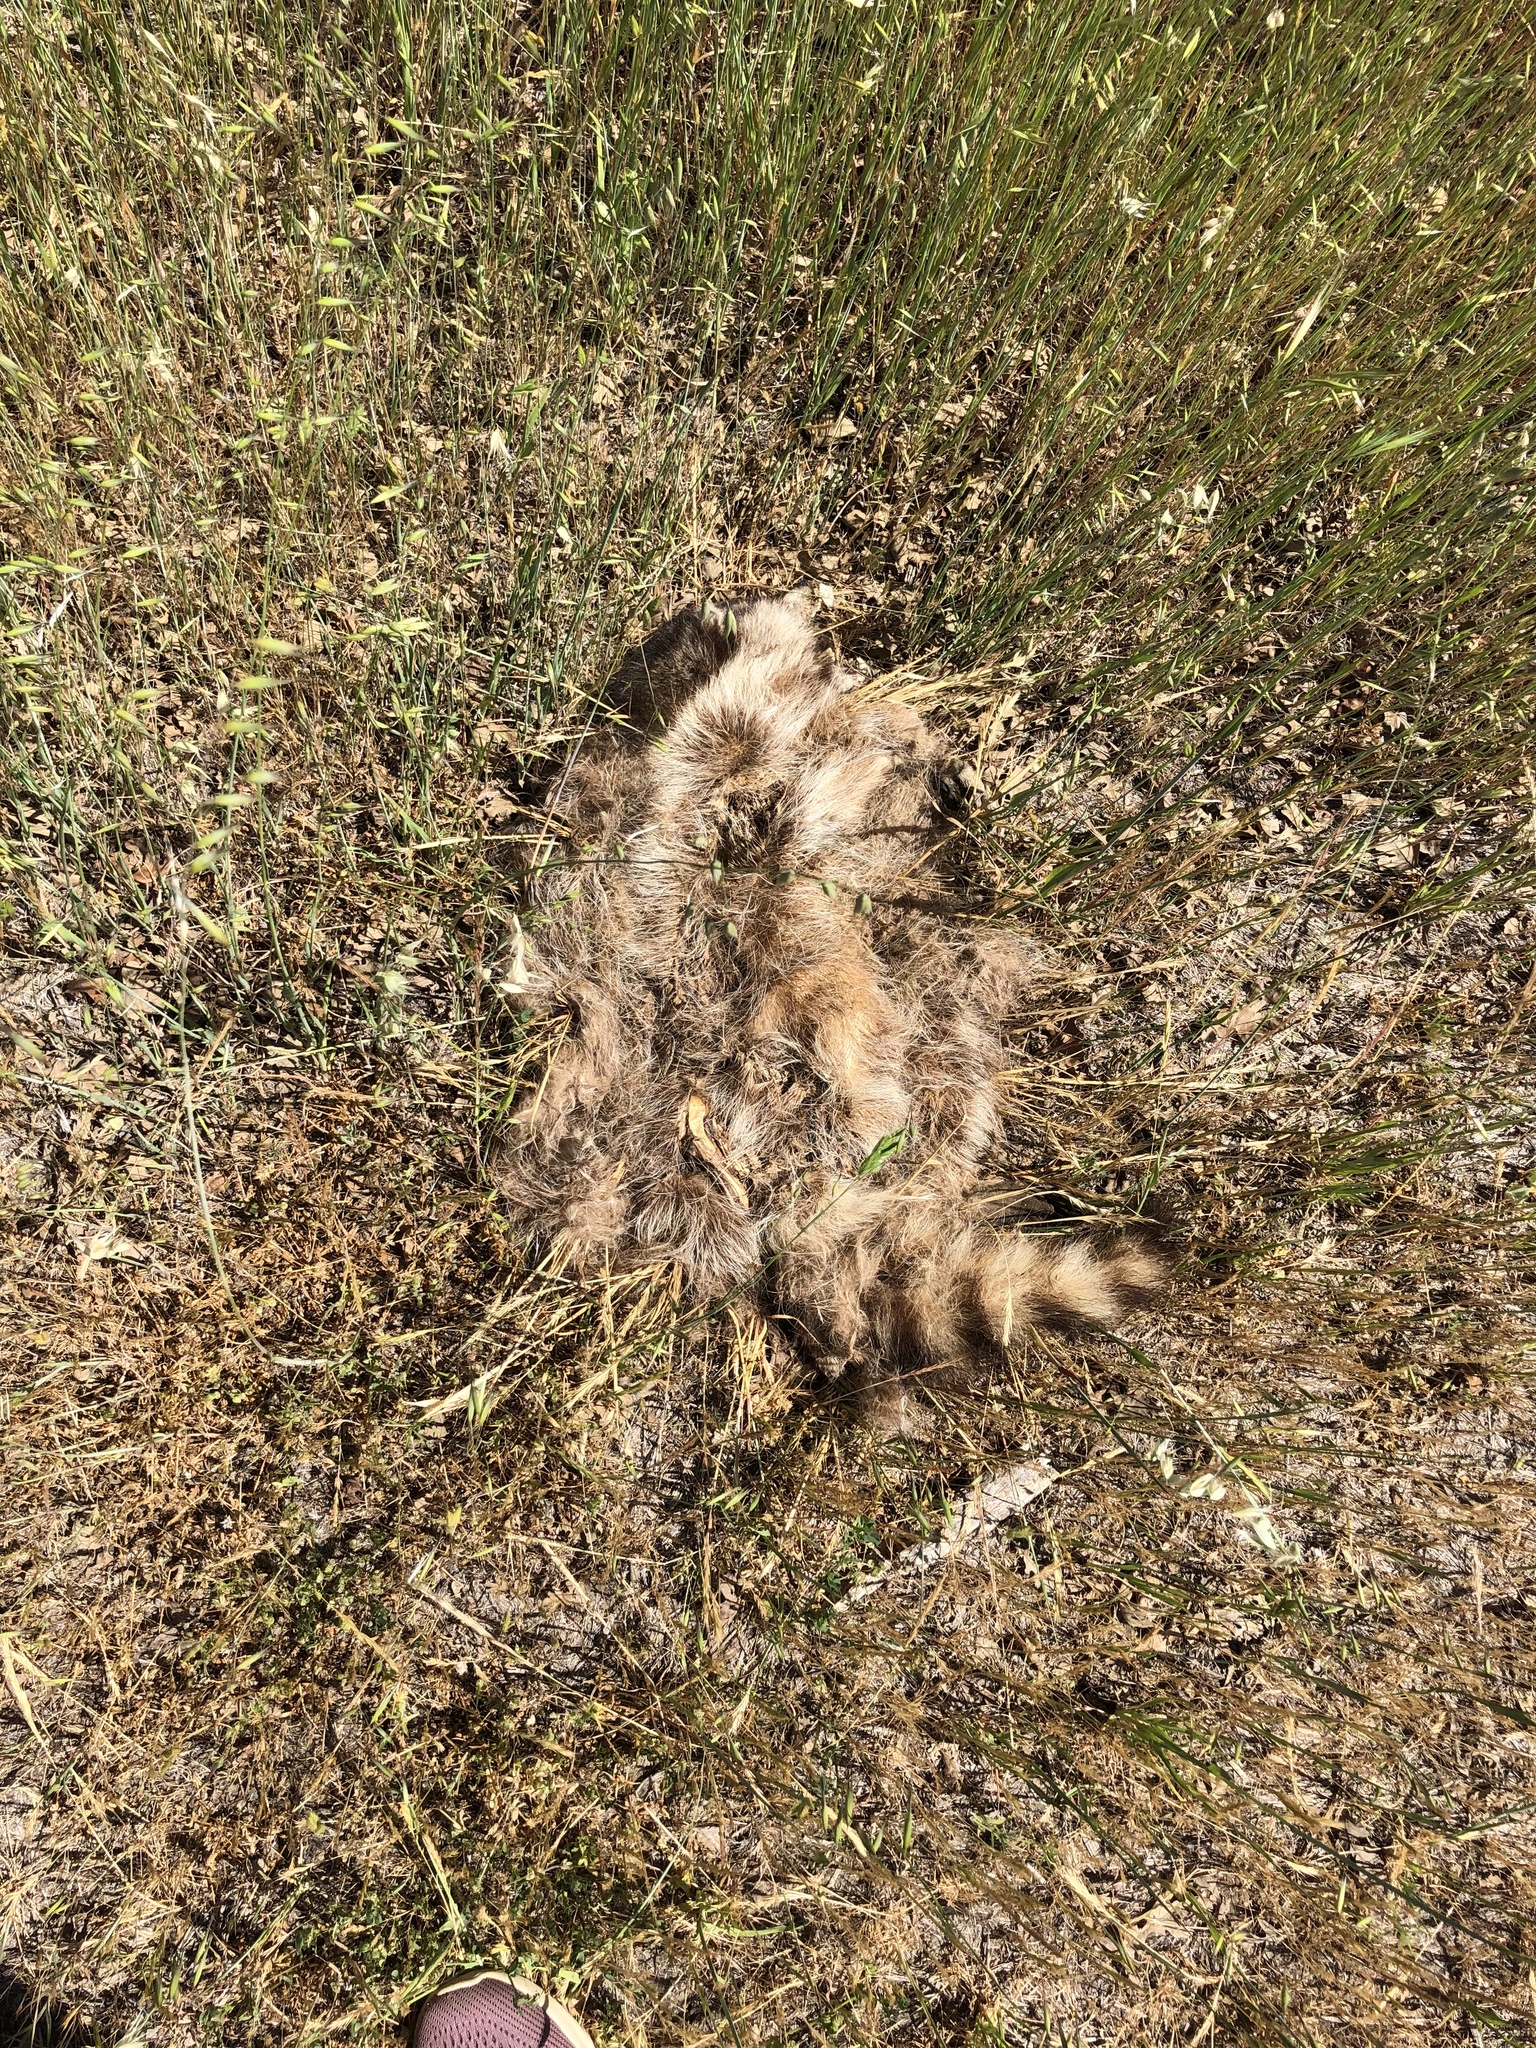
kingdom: Animalia
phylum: Chordata
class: Mammalia
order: Carnivora
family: Procyonidae
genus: Procyon
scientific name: Procyon lotor
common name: Raccoon
